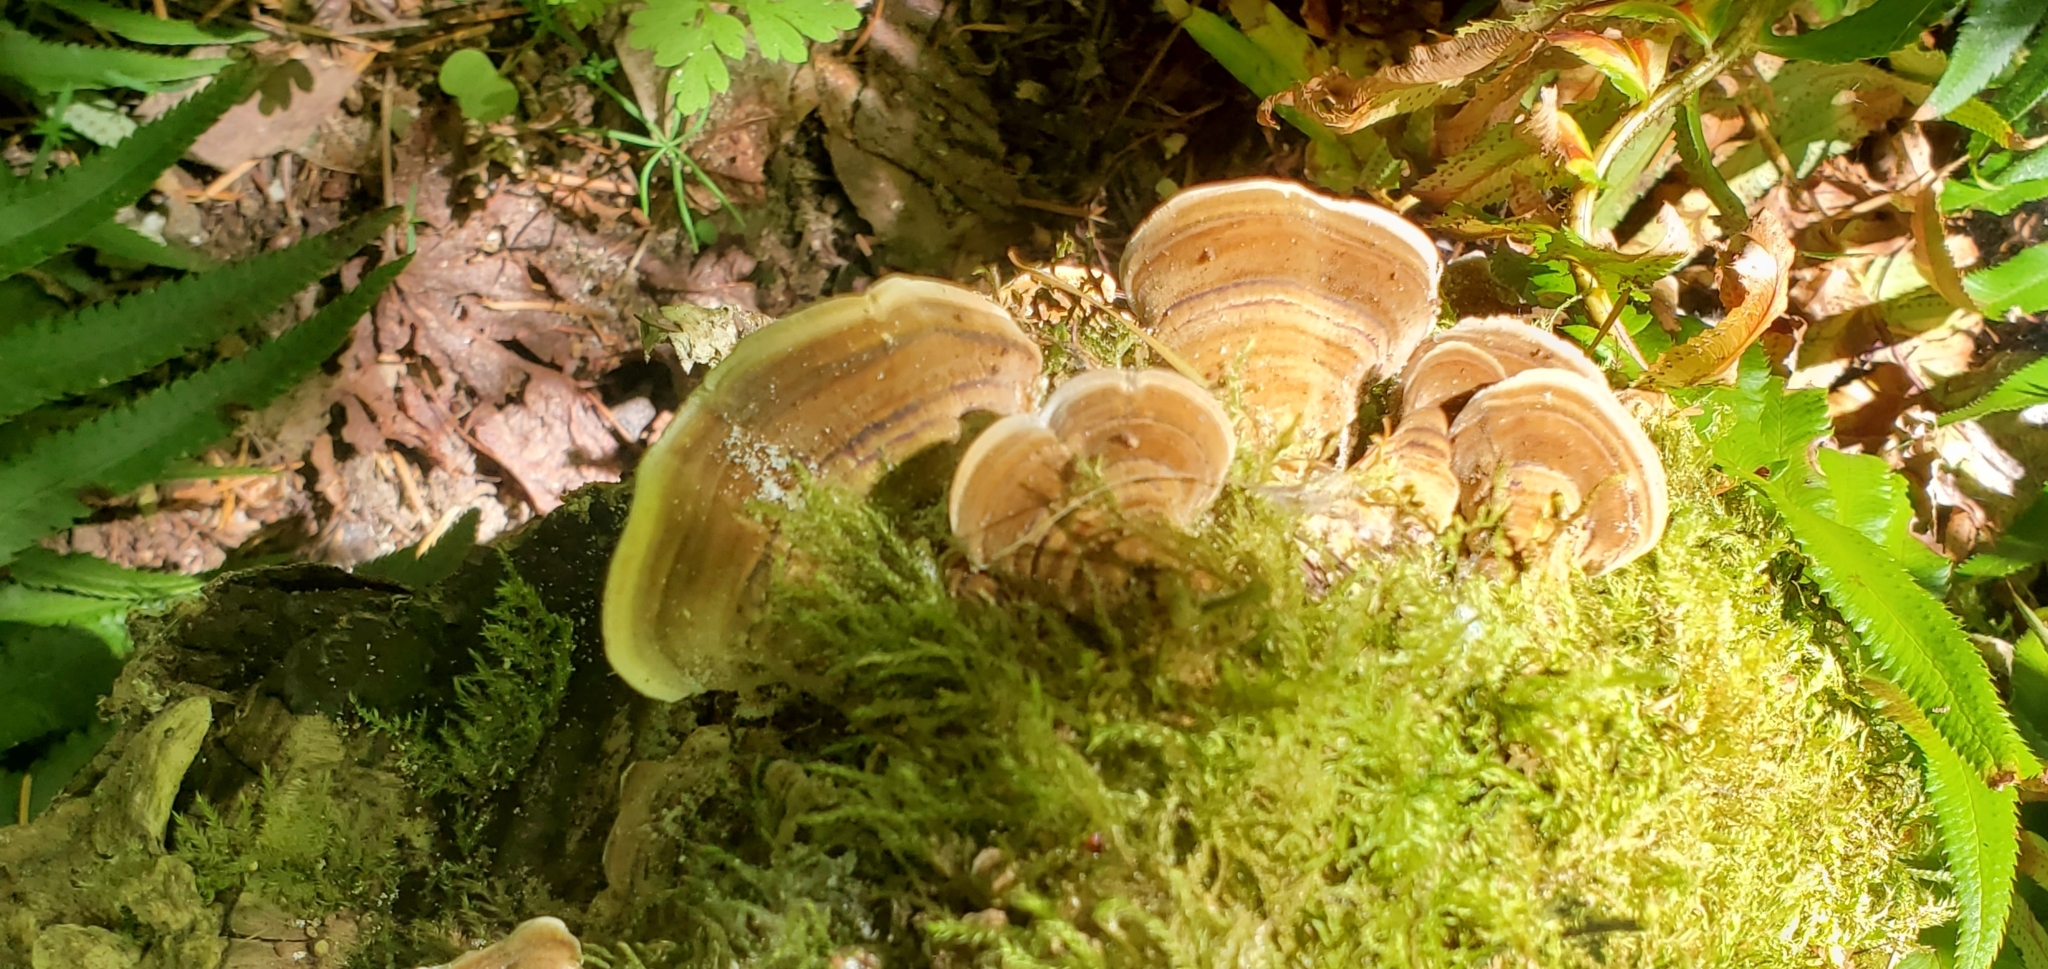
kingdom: Fungi
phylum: Basidiomycota
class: Agaricomycetes
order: Polyporales
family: Polyporaceae
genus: Trametes
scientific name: Trametes versicolor
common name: Turkeytail
